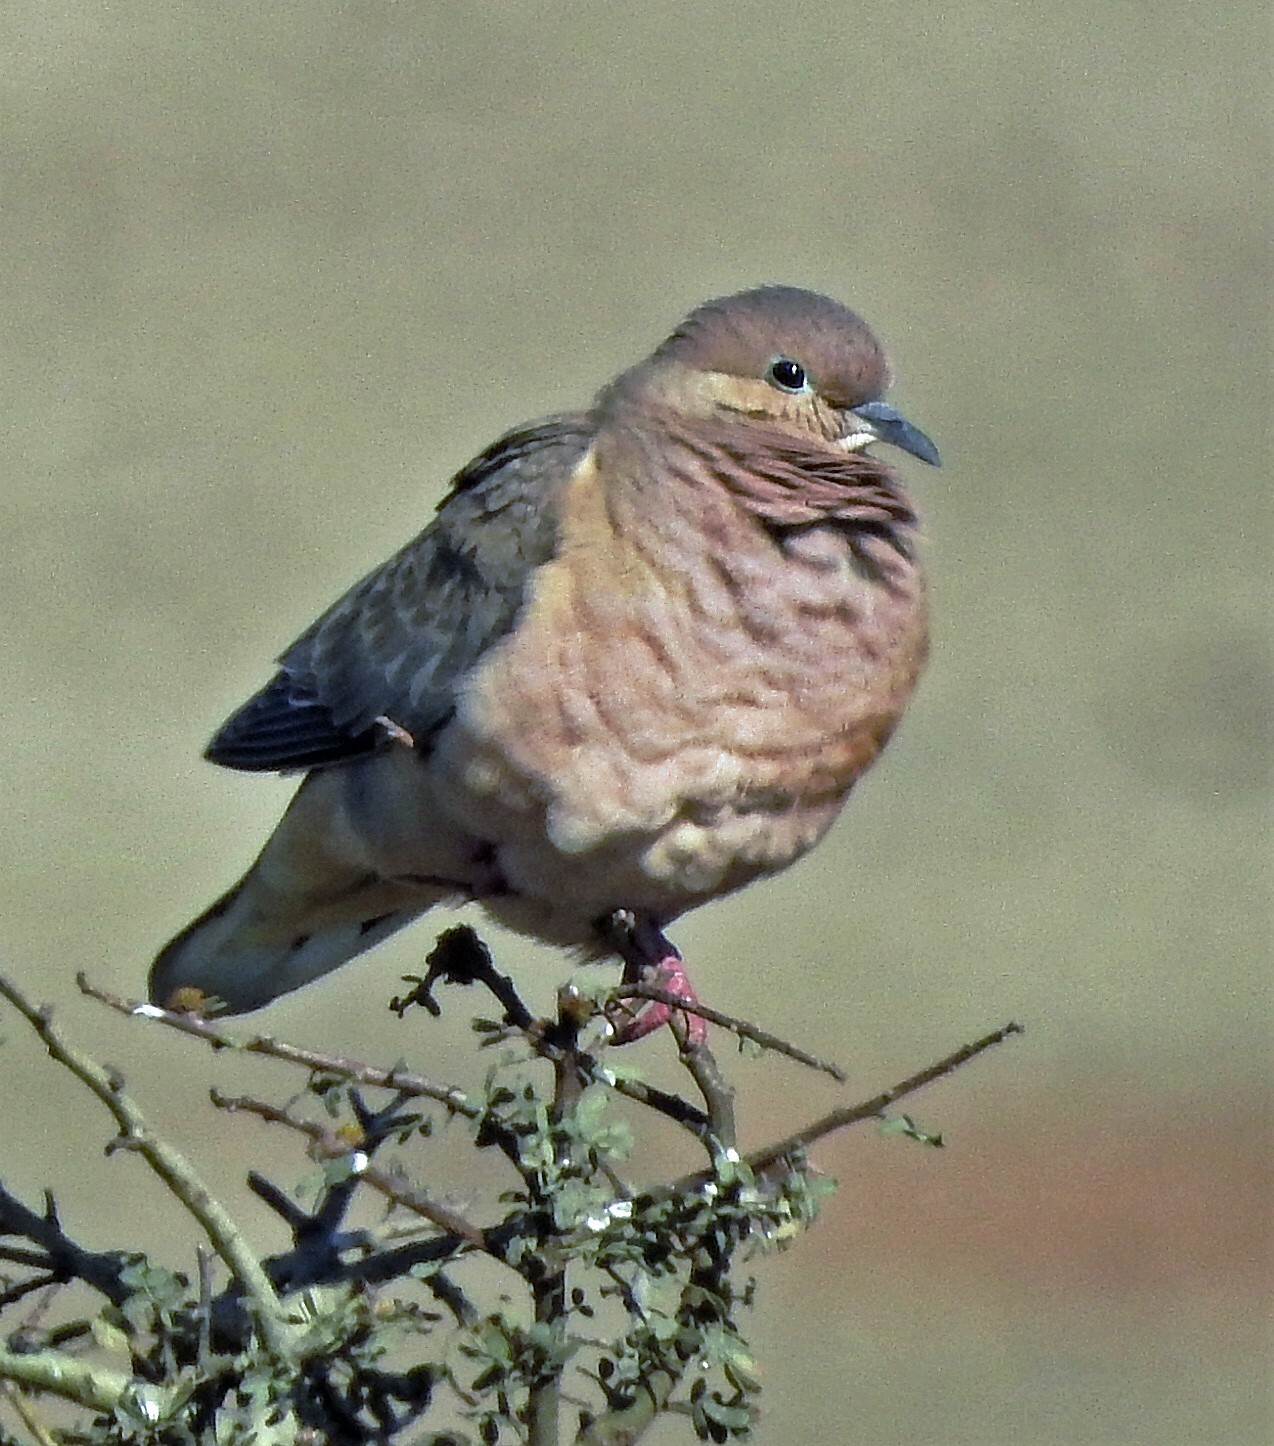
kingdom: Animalia
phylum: Chordata
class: Aves
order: Columbiformes
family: Columbidae
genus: Zenaida
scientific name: Zenaida auriculata
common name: Eared dove
